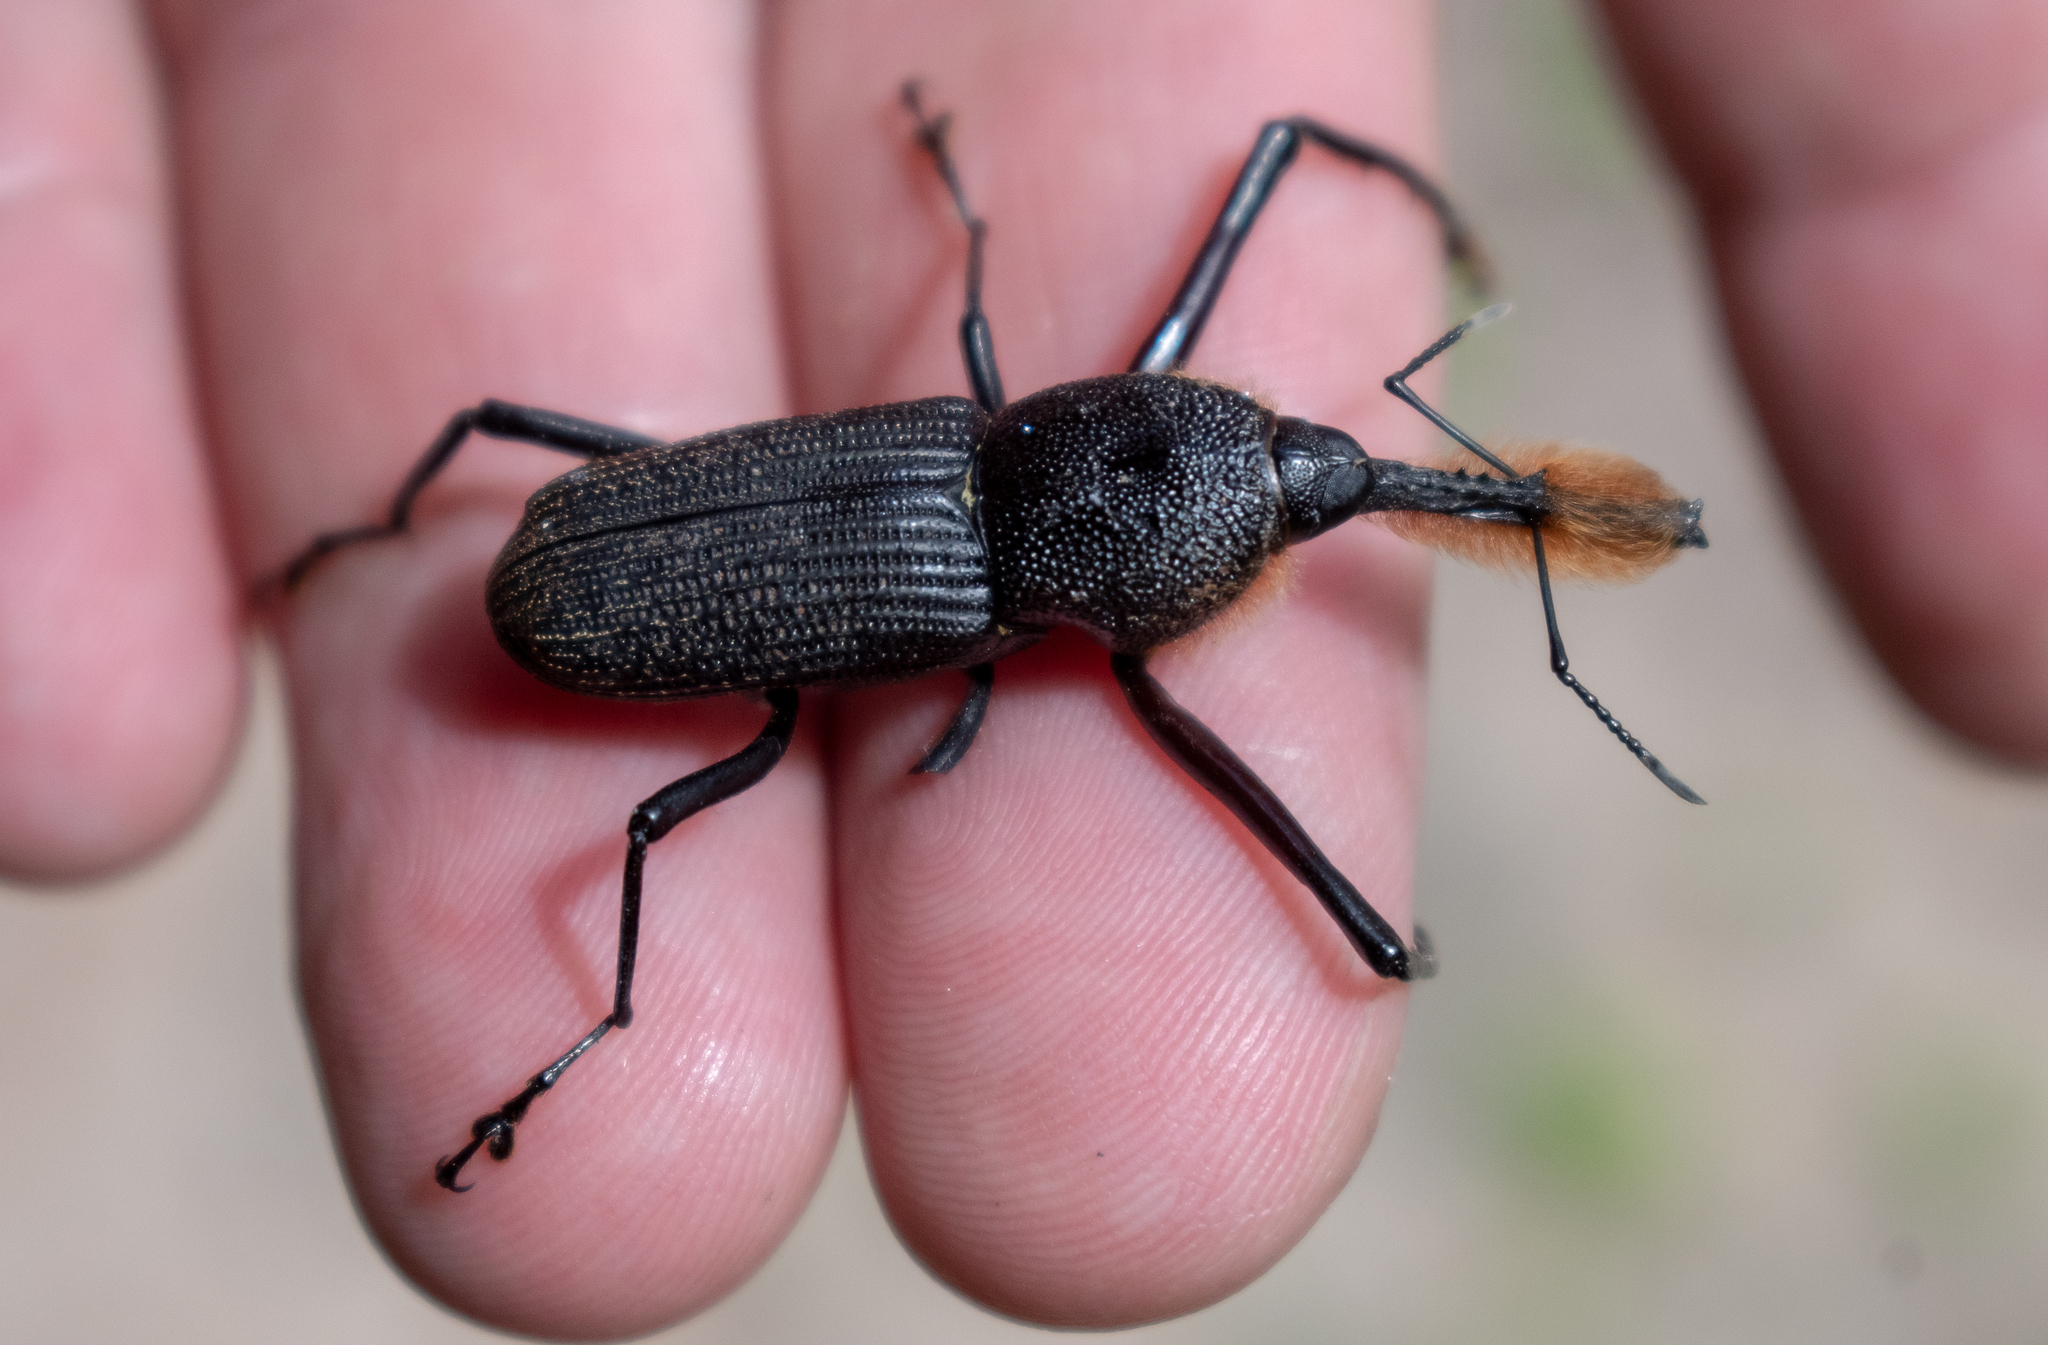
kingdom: Animalia
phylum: Arthropoda
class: Insecta
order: Coleoptera
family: Dryophthoridae
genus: Rhinostomus
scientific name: Rhinostomus barbirostris
